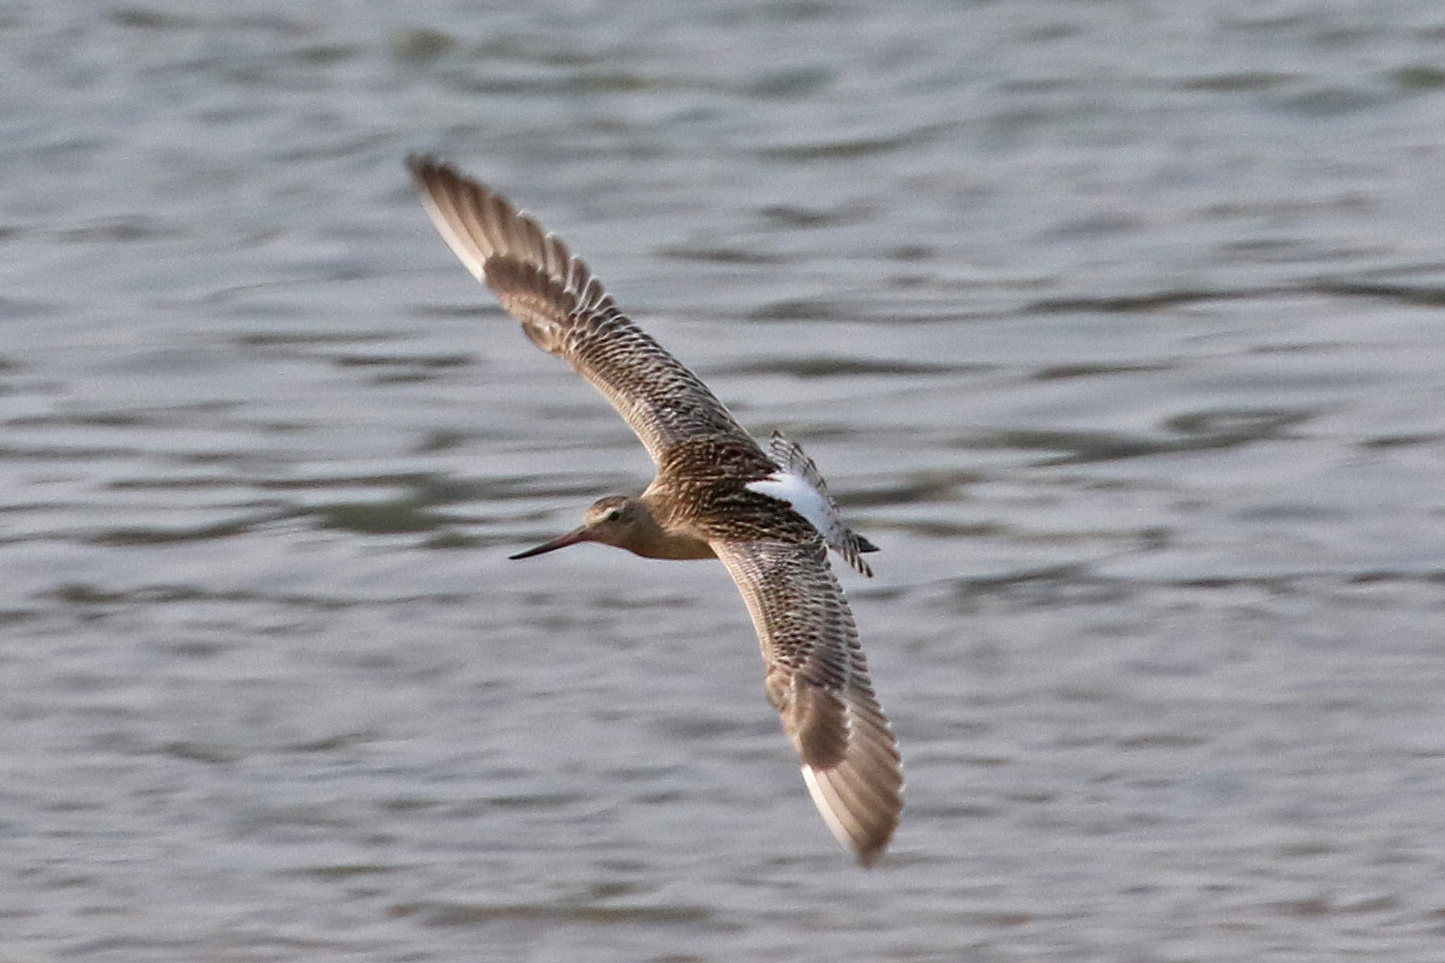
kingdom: Animalia
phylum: Chordata
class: Aves
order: Charadriiformes
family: Scolopacidae
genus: Limosa
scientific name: Limosa lapponica
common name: Bar-tailed godwit
